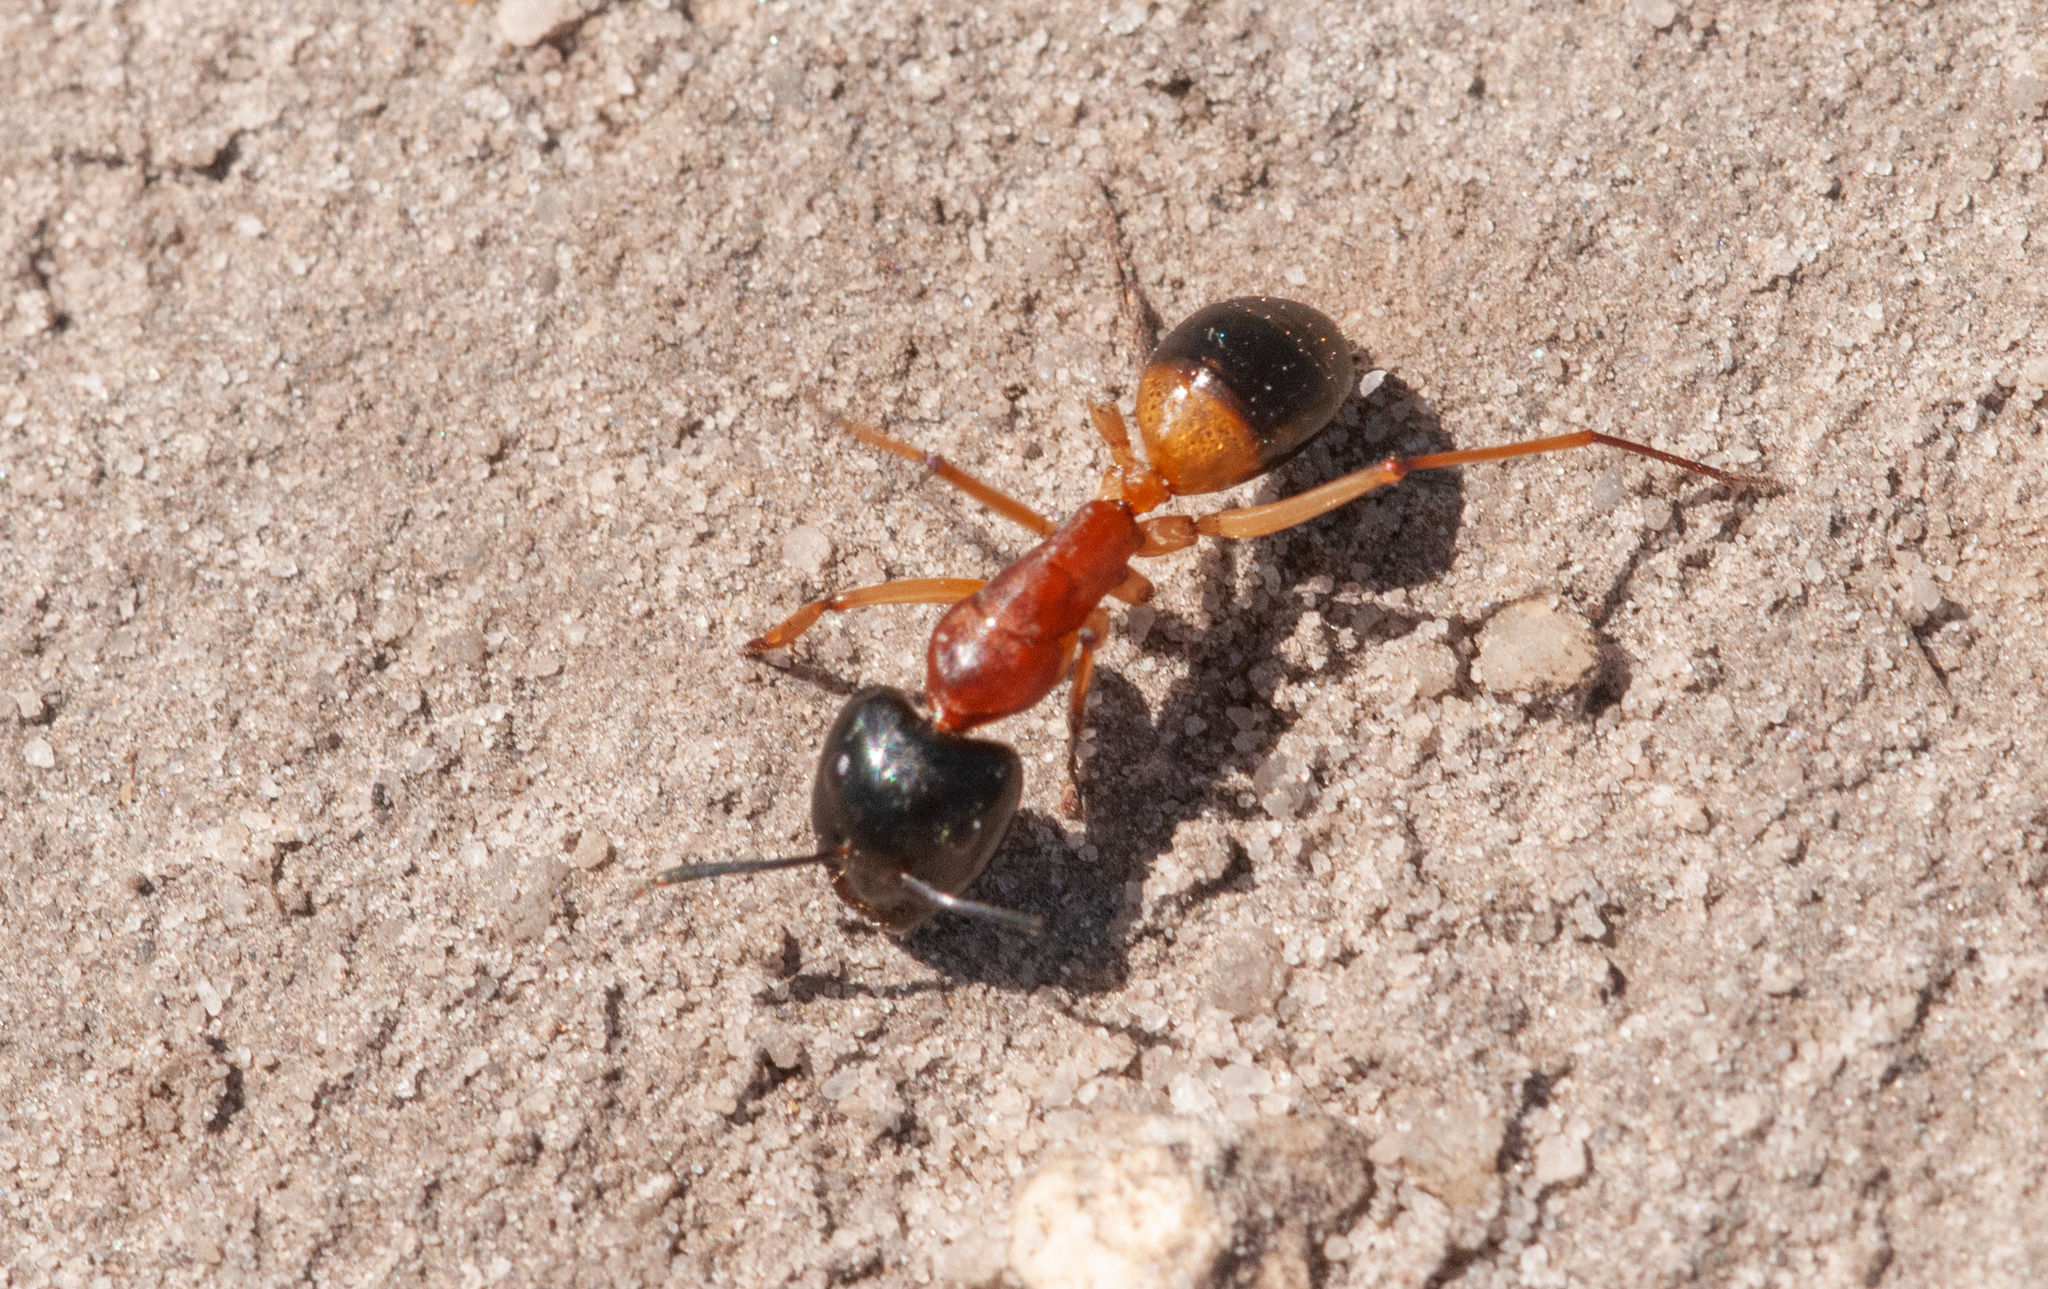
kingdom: Animalia
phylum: Arthropoda
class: Insecta
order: Hymenoptera
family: Formicidae
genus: Camponotus
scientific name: Camponotus consobrinus
